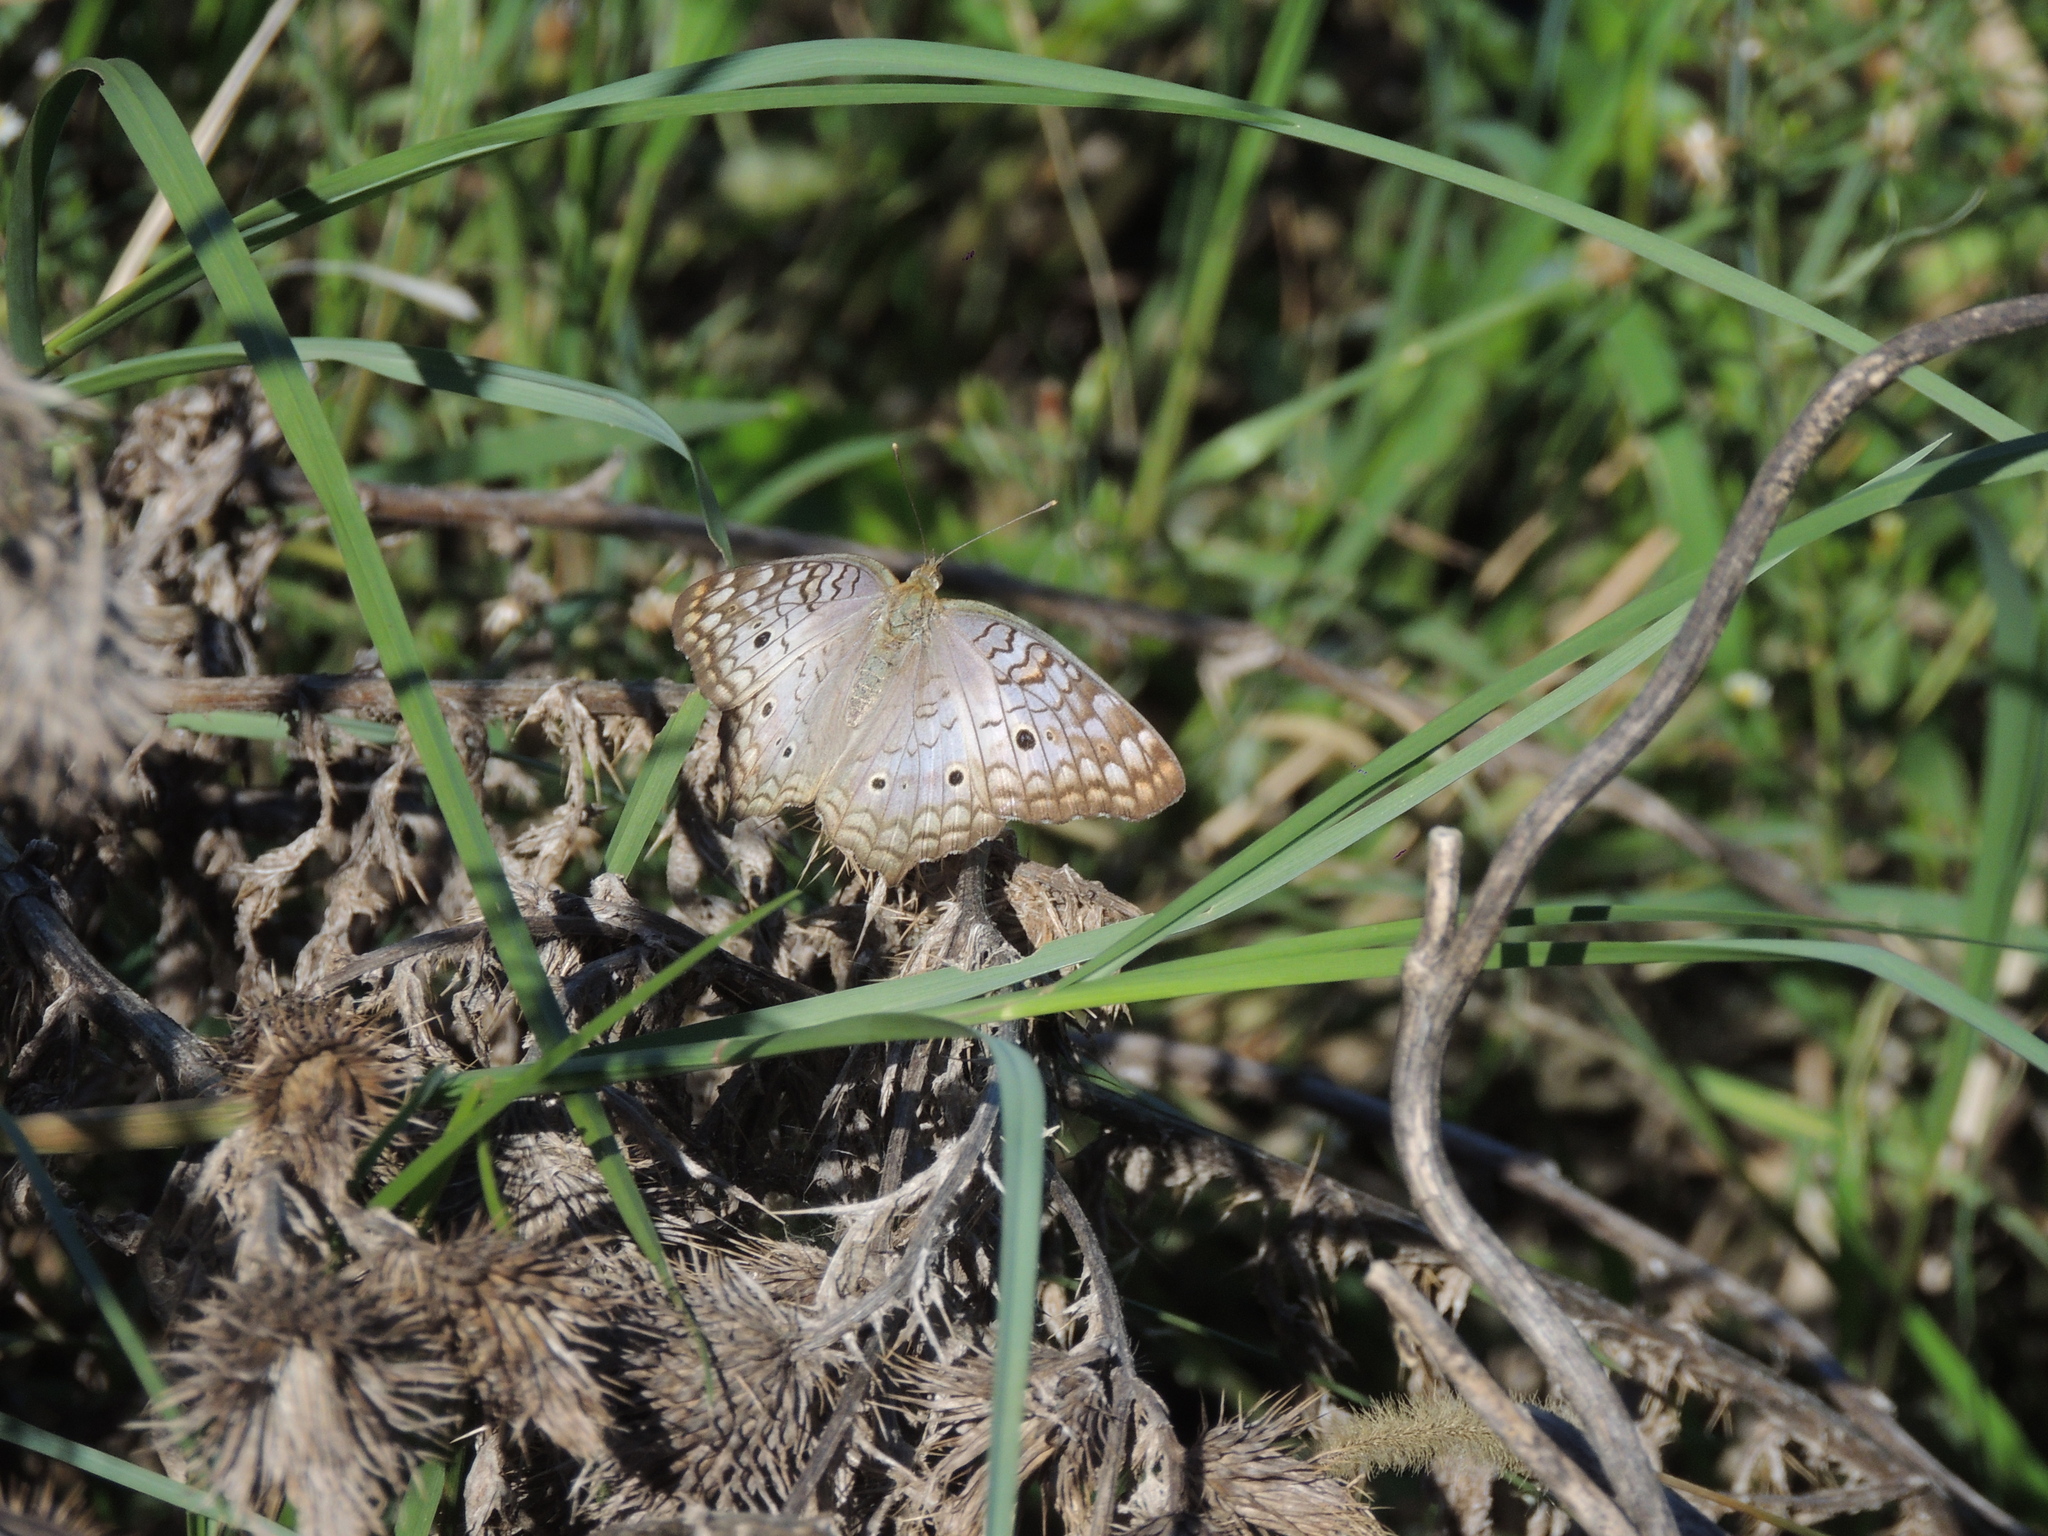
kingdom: Animalia
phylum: Arthropoda
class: Insecta
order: Lepidoptera
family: Nymphalidae
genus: Anartia
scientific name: Anartia jatrophae
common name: White peacock
